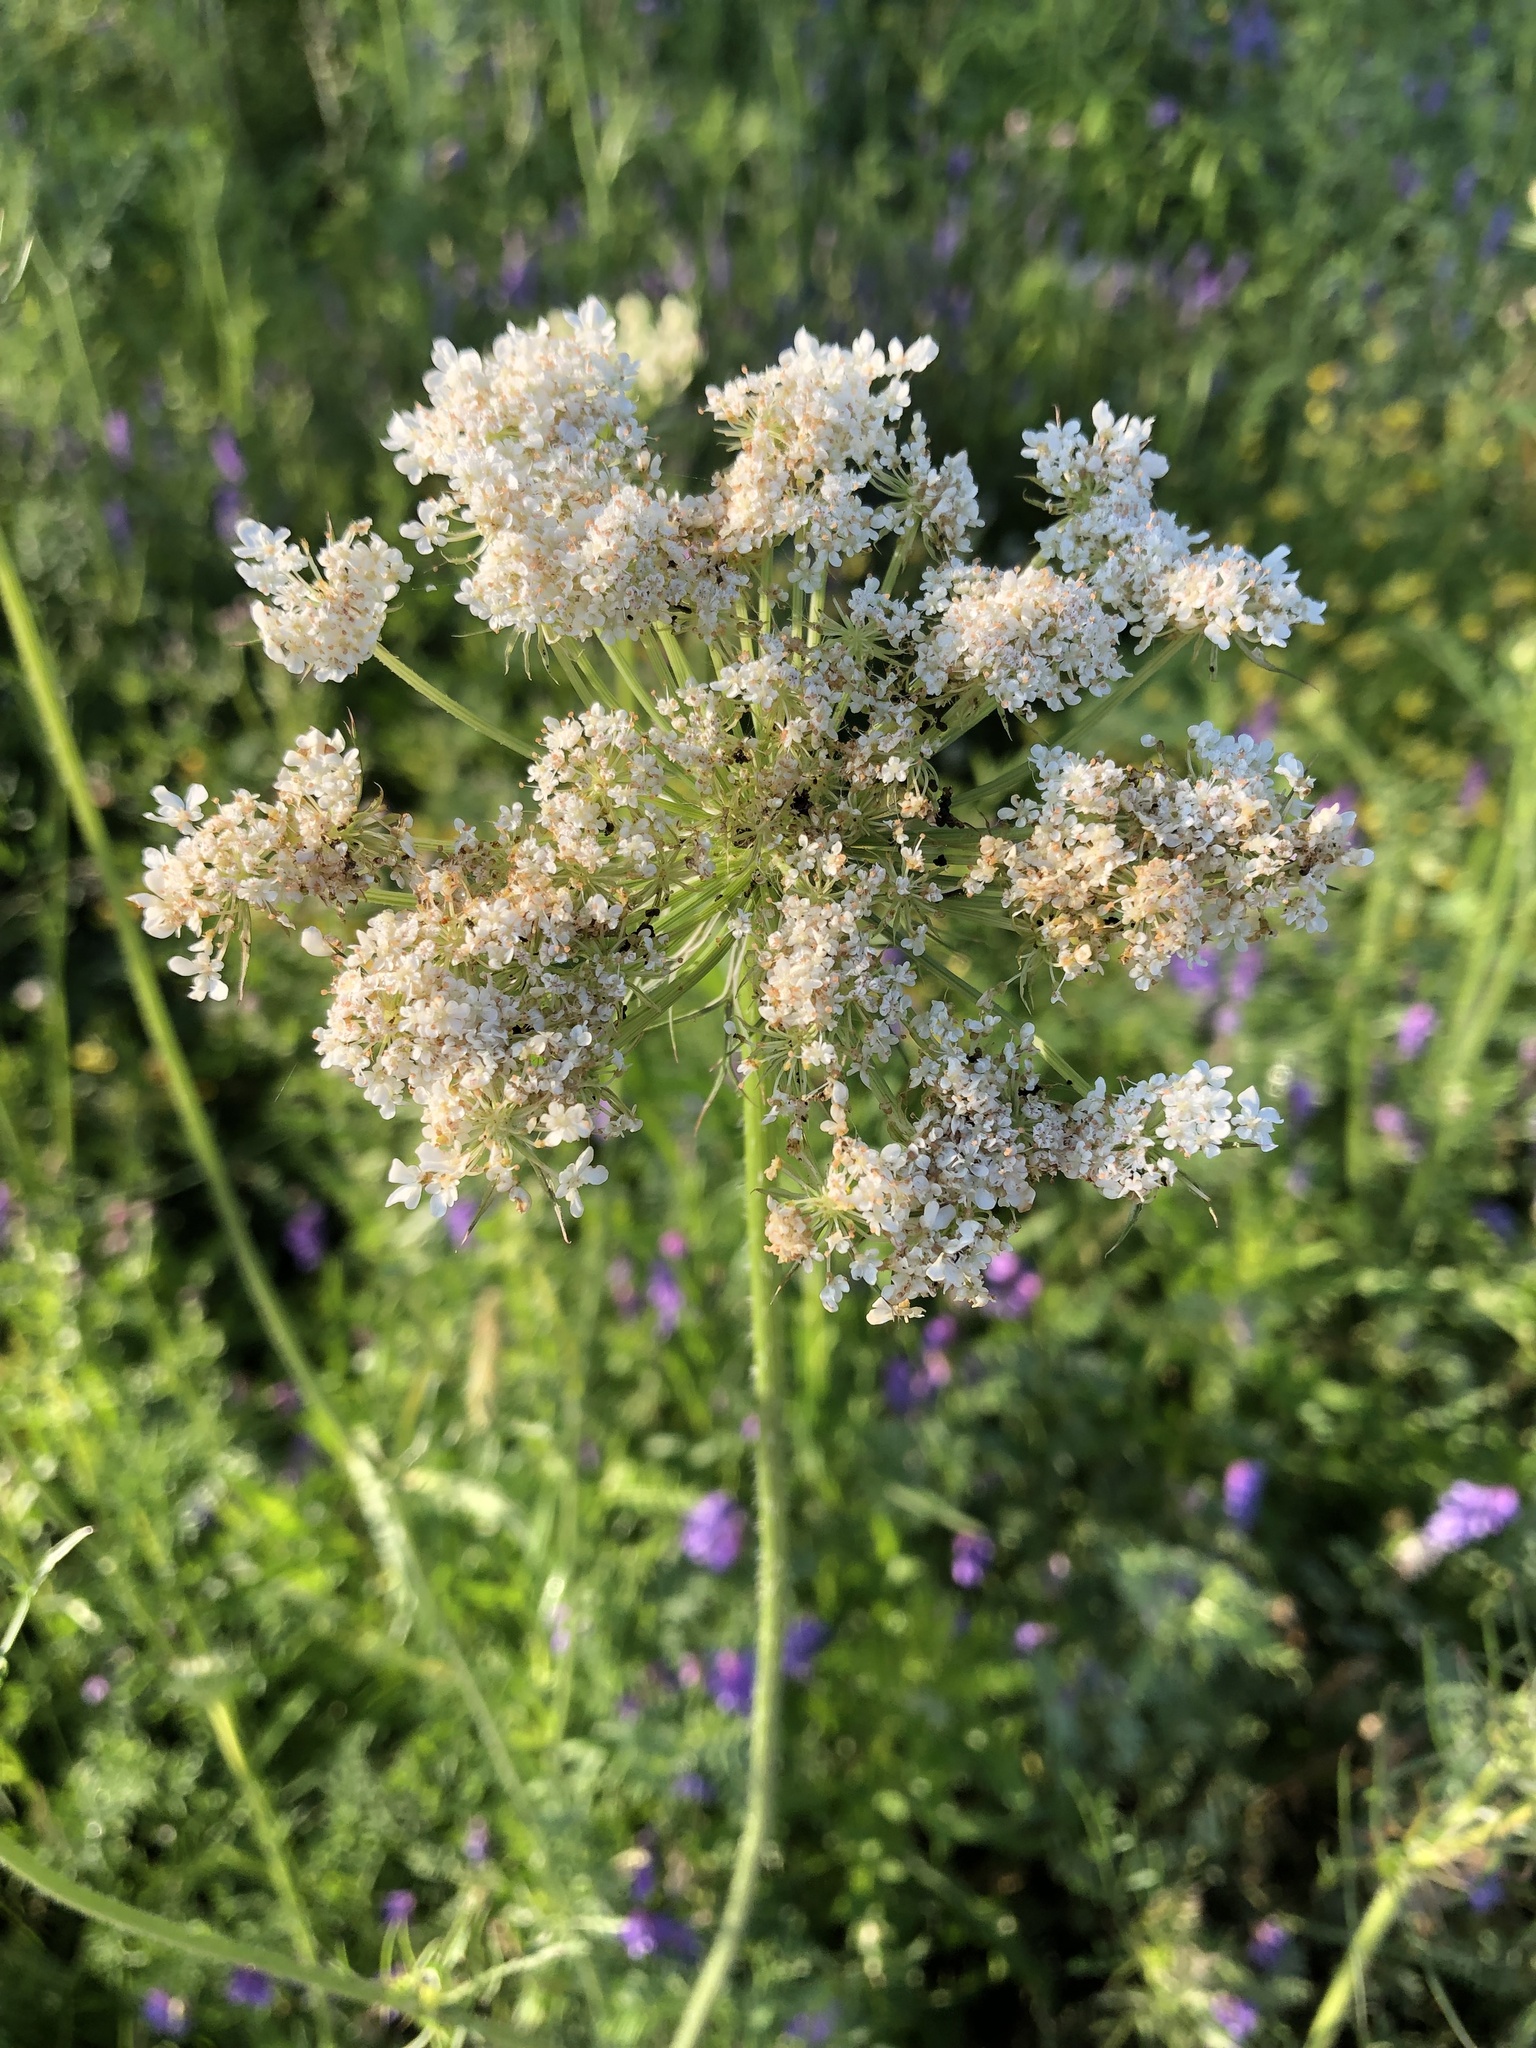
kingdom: Plantae
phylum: Tracheophyta
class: Magnoliopsida
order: Apiales
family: Apiaceae
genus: Daucus
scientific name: Daucus carota
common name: Wild carrot
